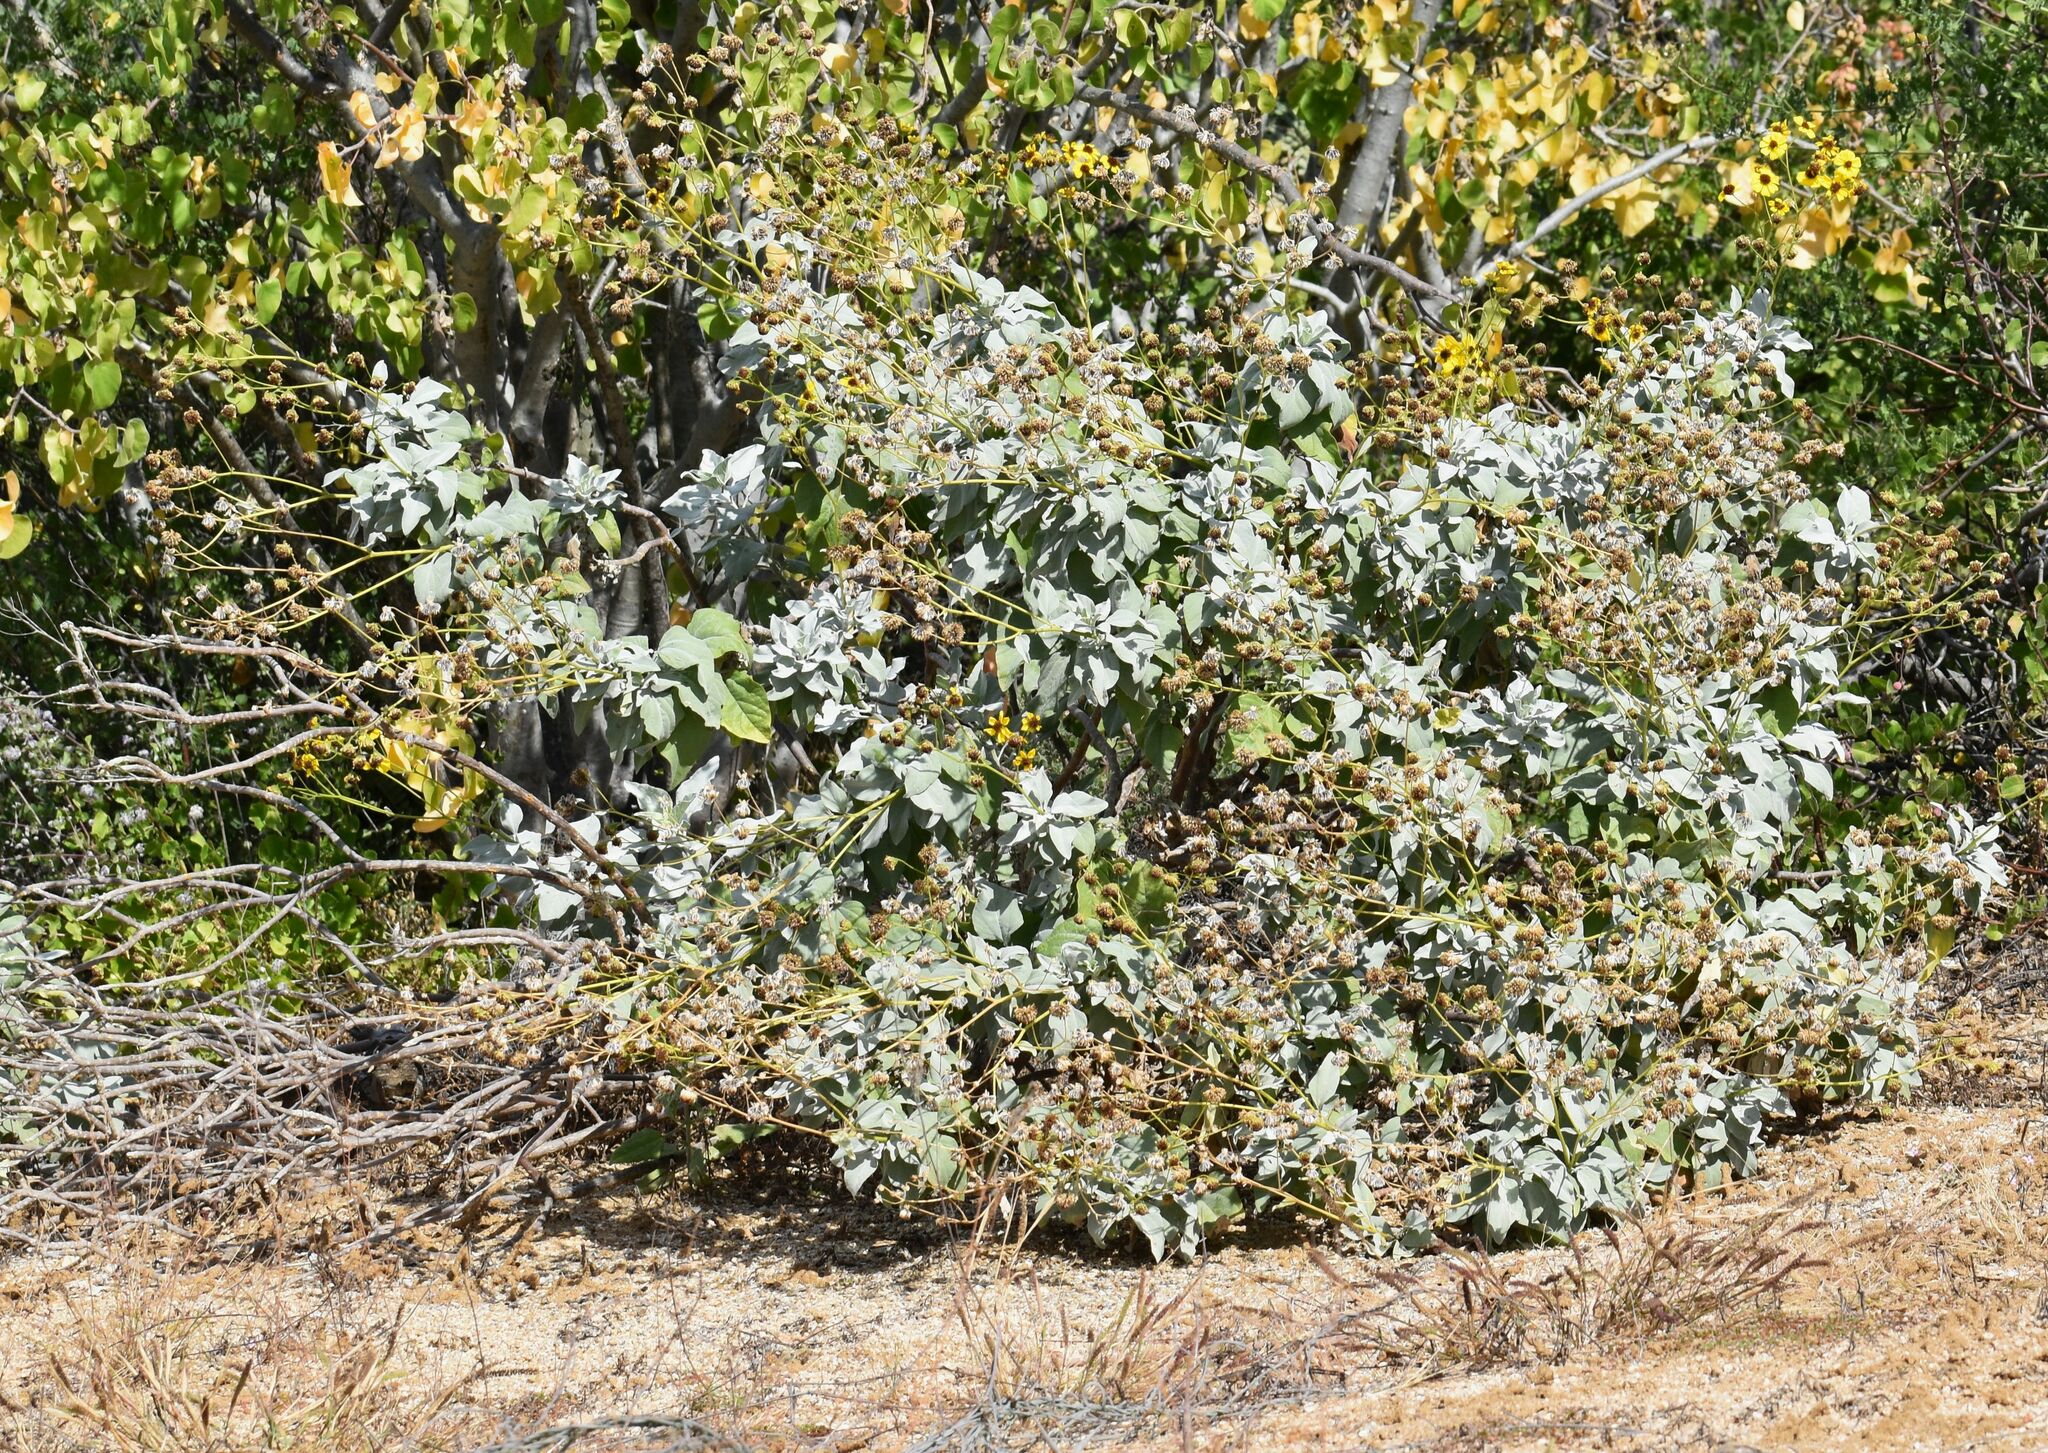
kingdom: Plantae
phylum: Tracheophyta
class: Magnoliopsida
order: Asterales
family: Asteraceae
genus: Encelia
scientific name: Encelia farinosa
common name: Brittlebush
